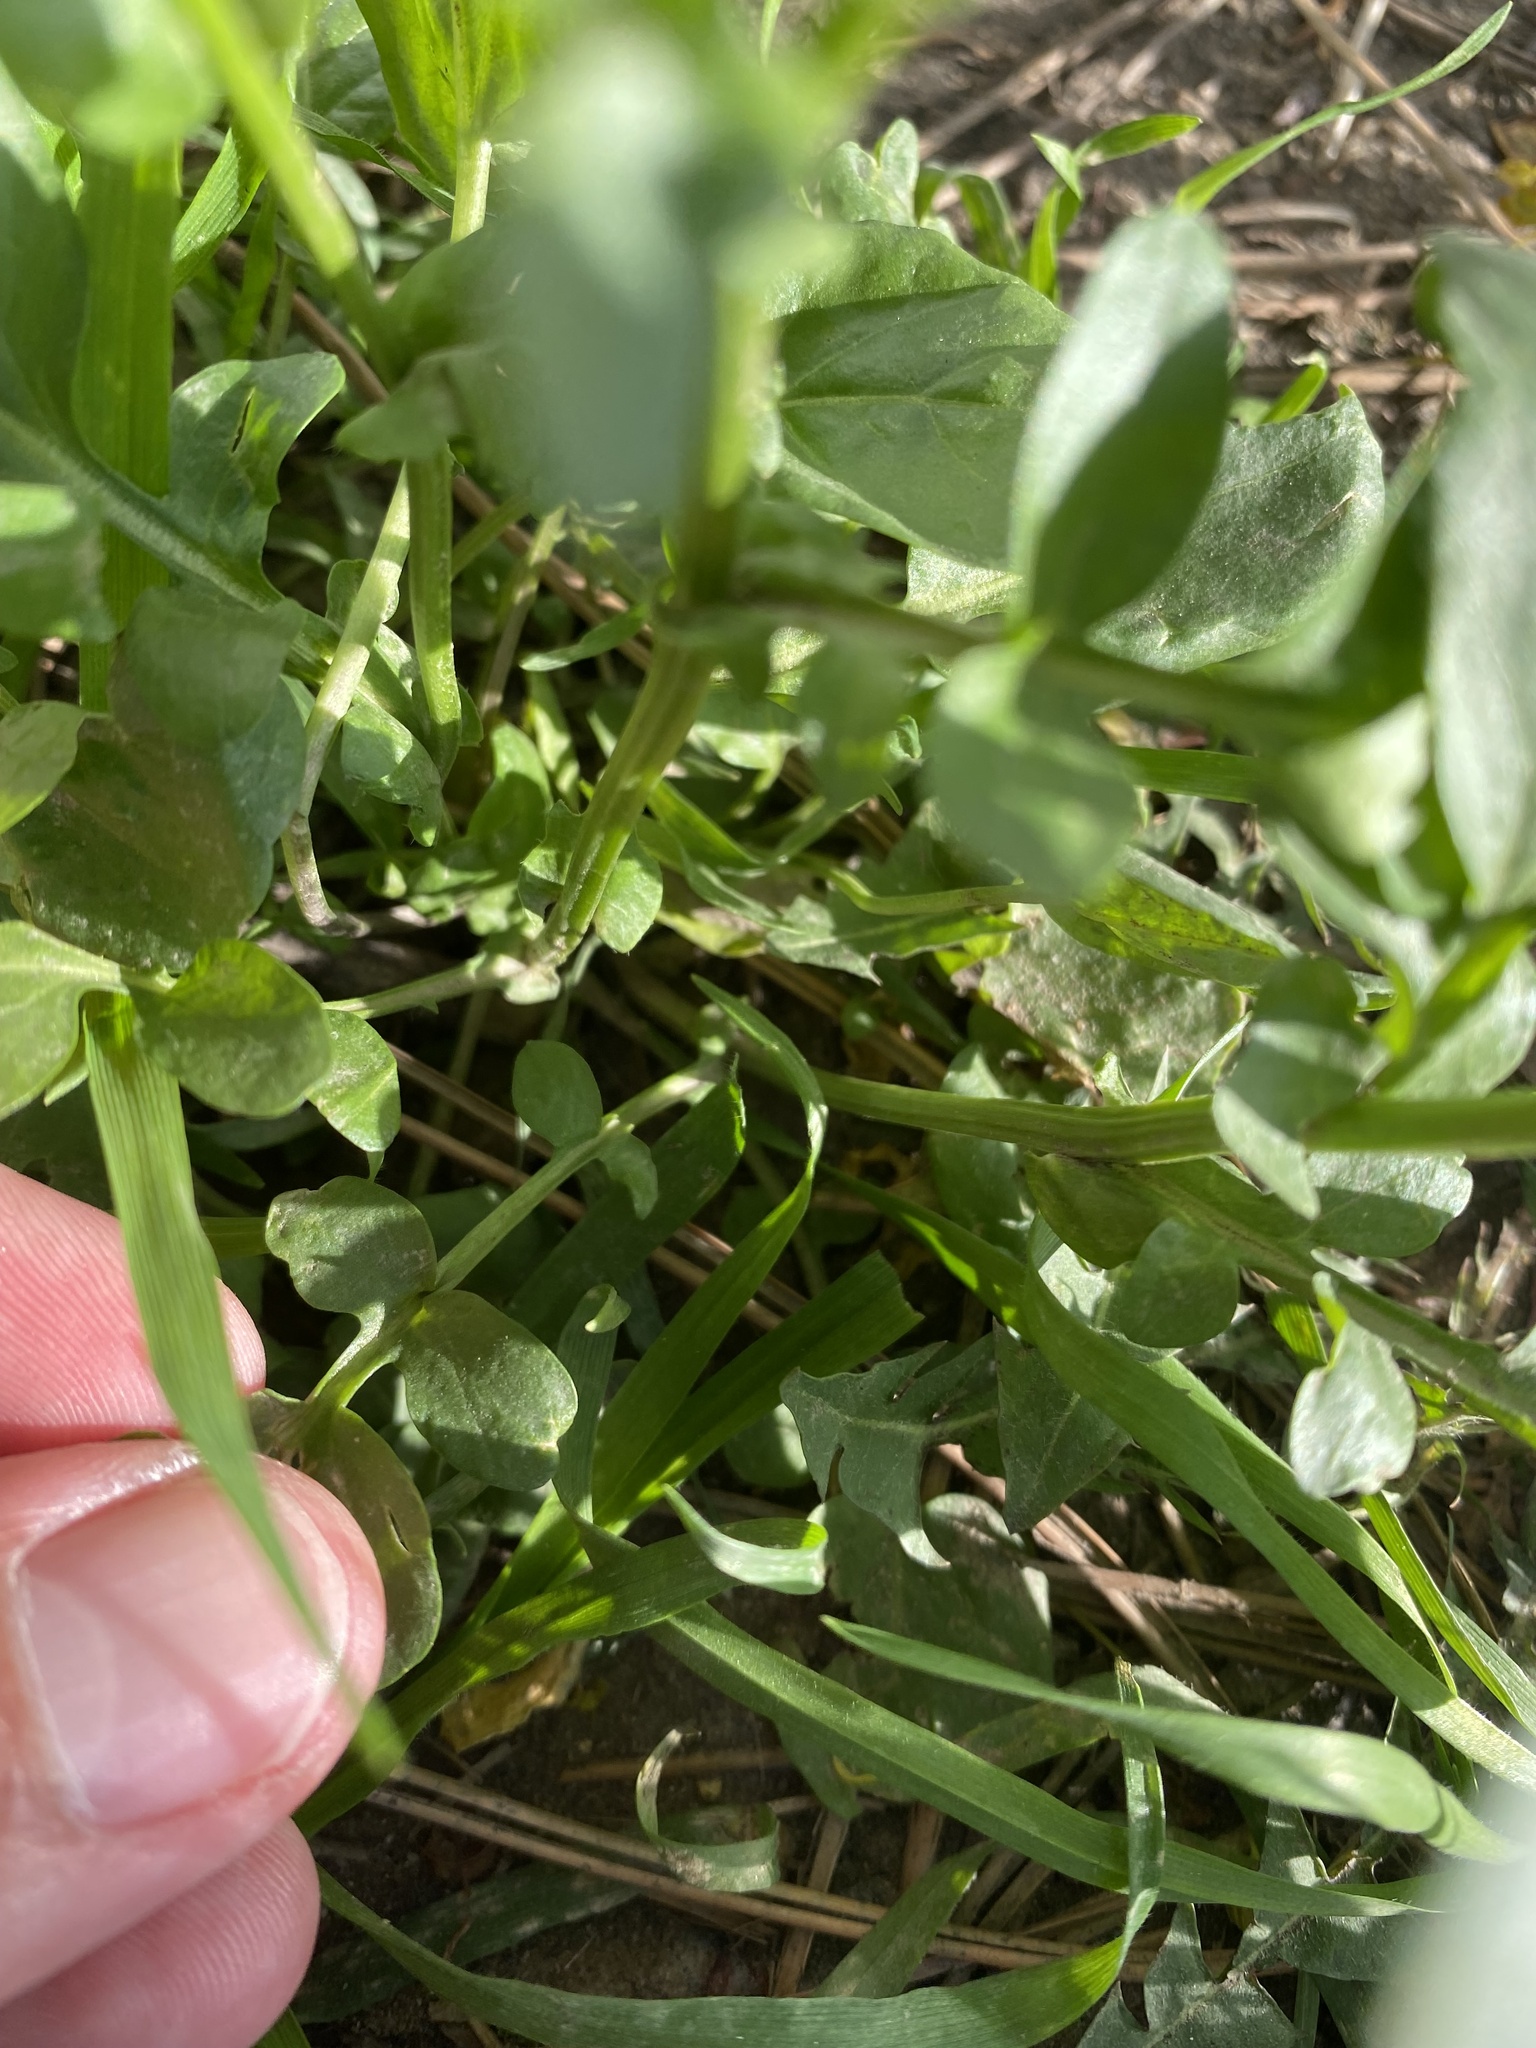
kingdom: Plantae
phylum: Tracheophyta
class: Magnoliopsida
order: Brassicales
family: Brassicaceae
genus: Barbarea
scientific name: Barbarea vulgaris
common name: Cressy-greens
